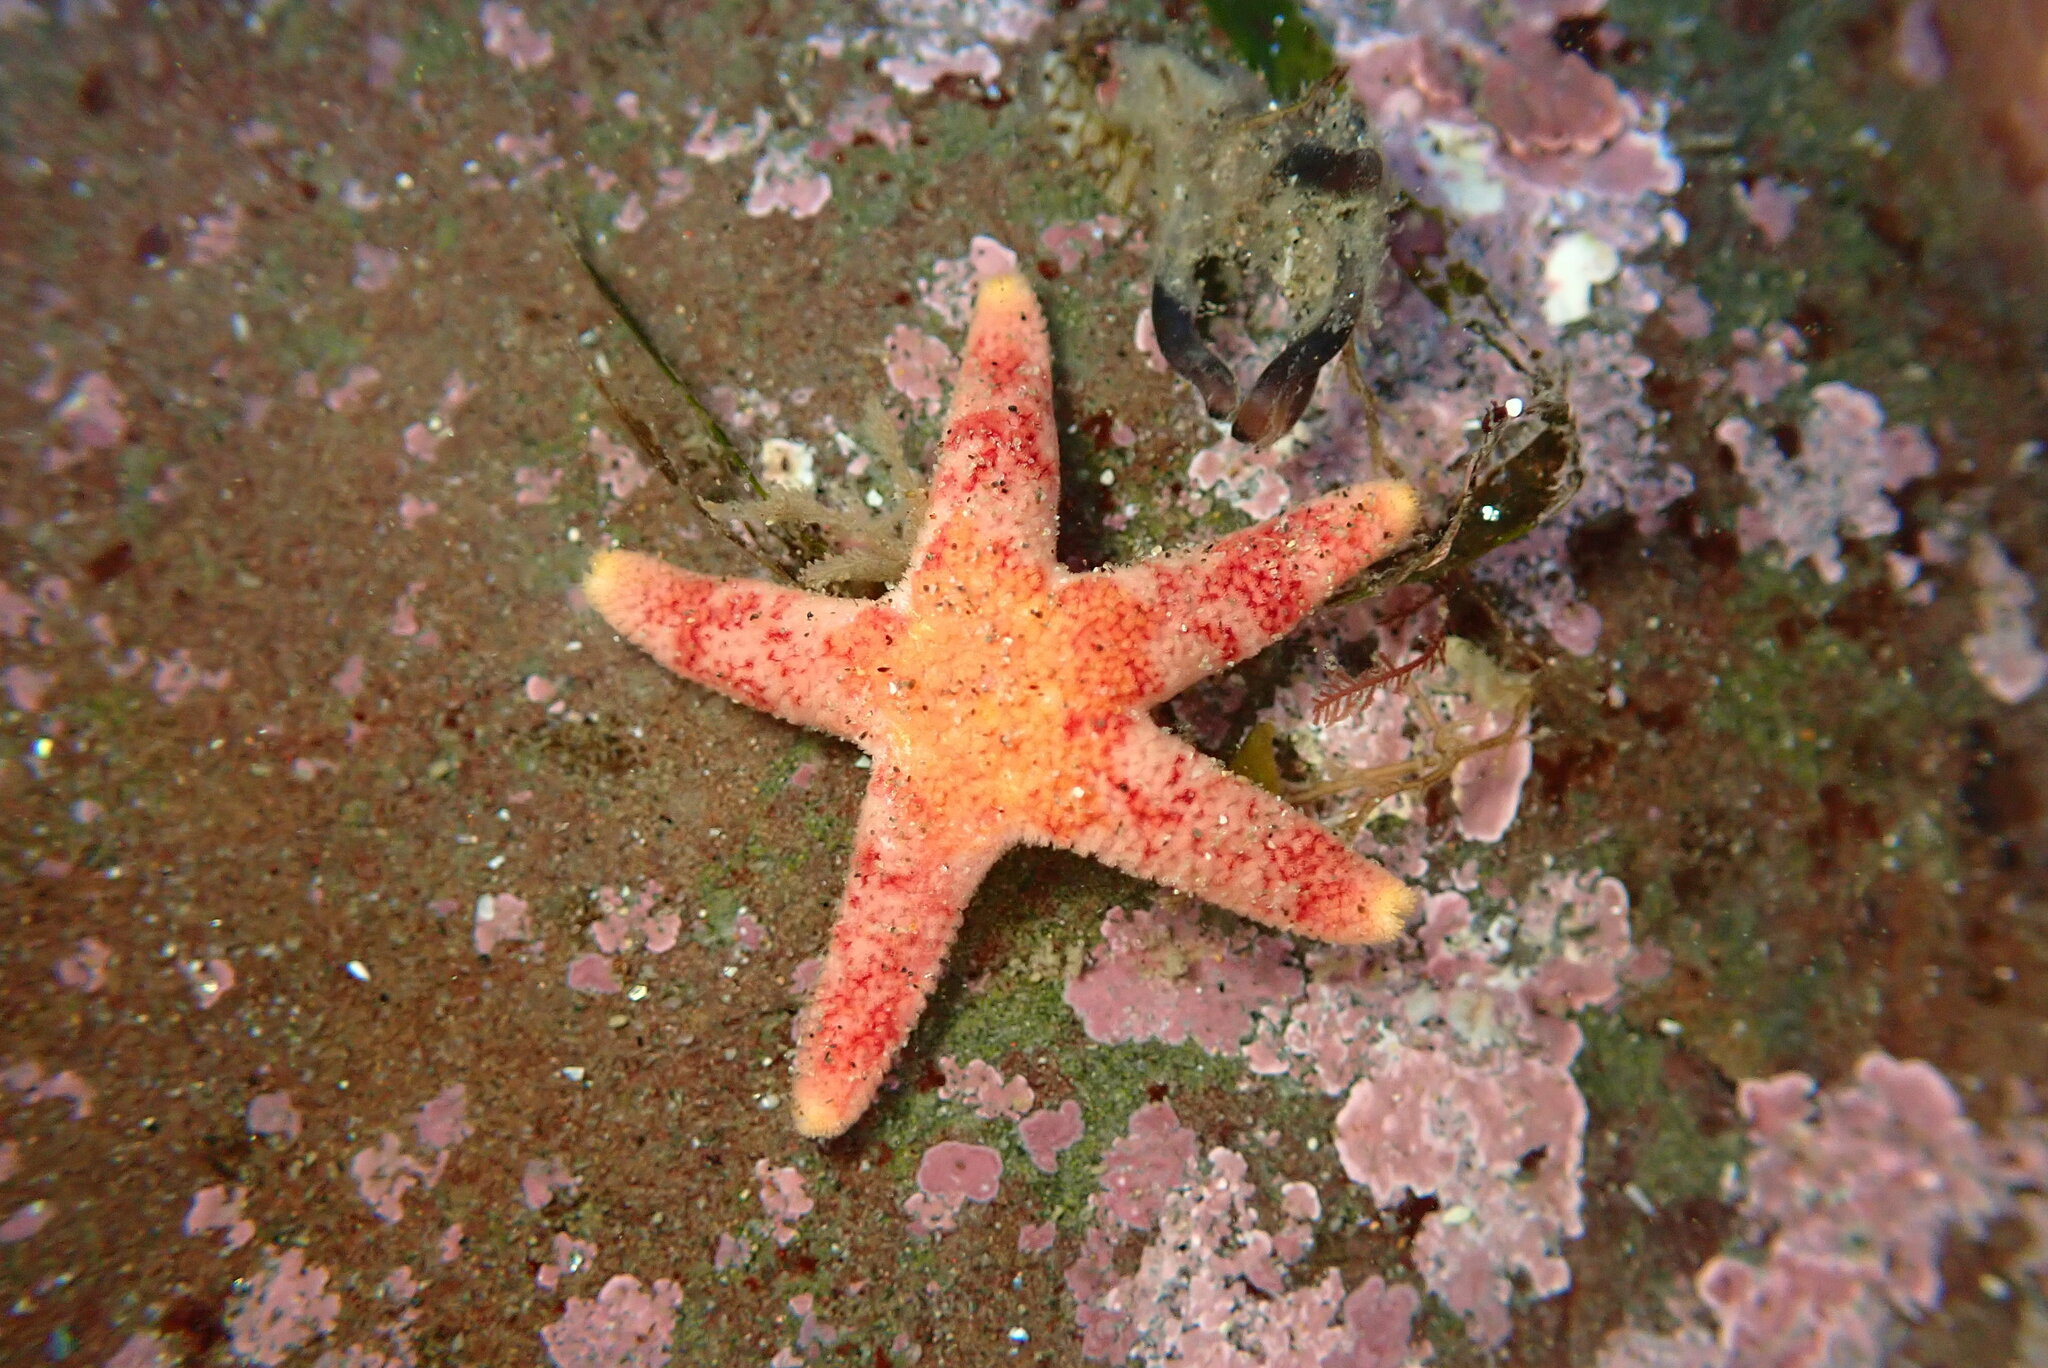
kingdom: Animalia
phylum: Echinodermata
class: Asteroidea
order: Spinulosida
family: Echinasteridae
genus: Henricia
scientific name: Henricia pumila
